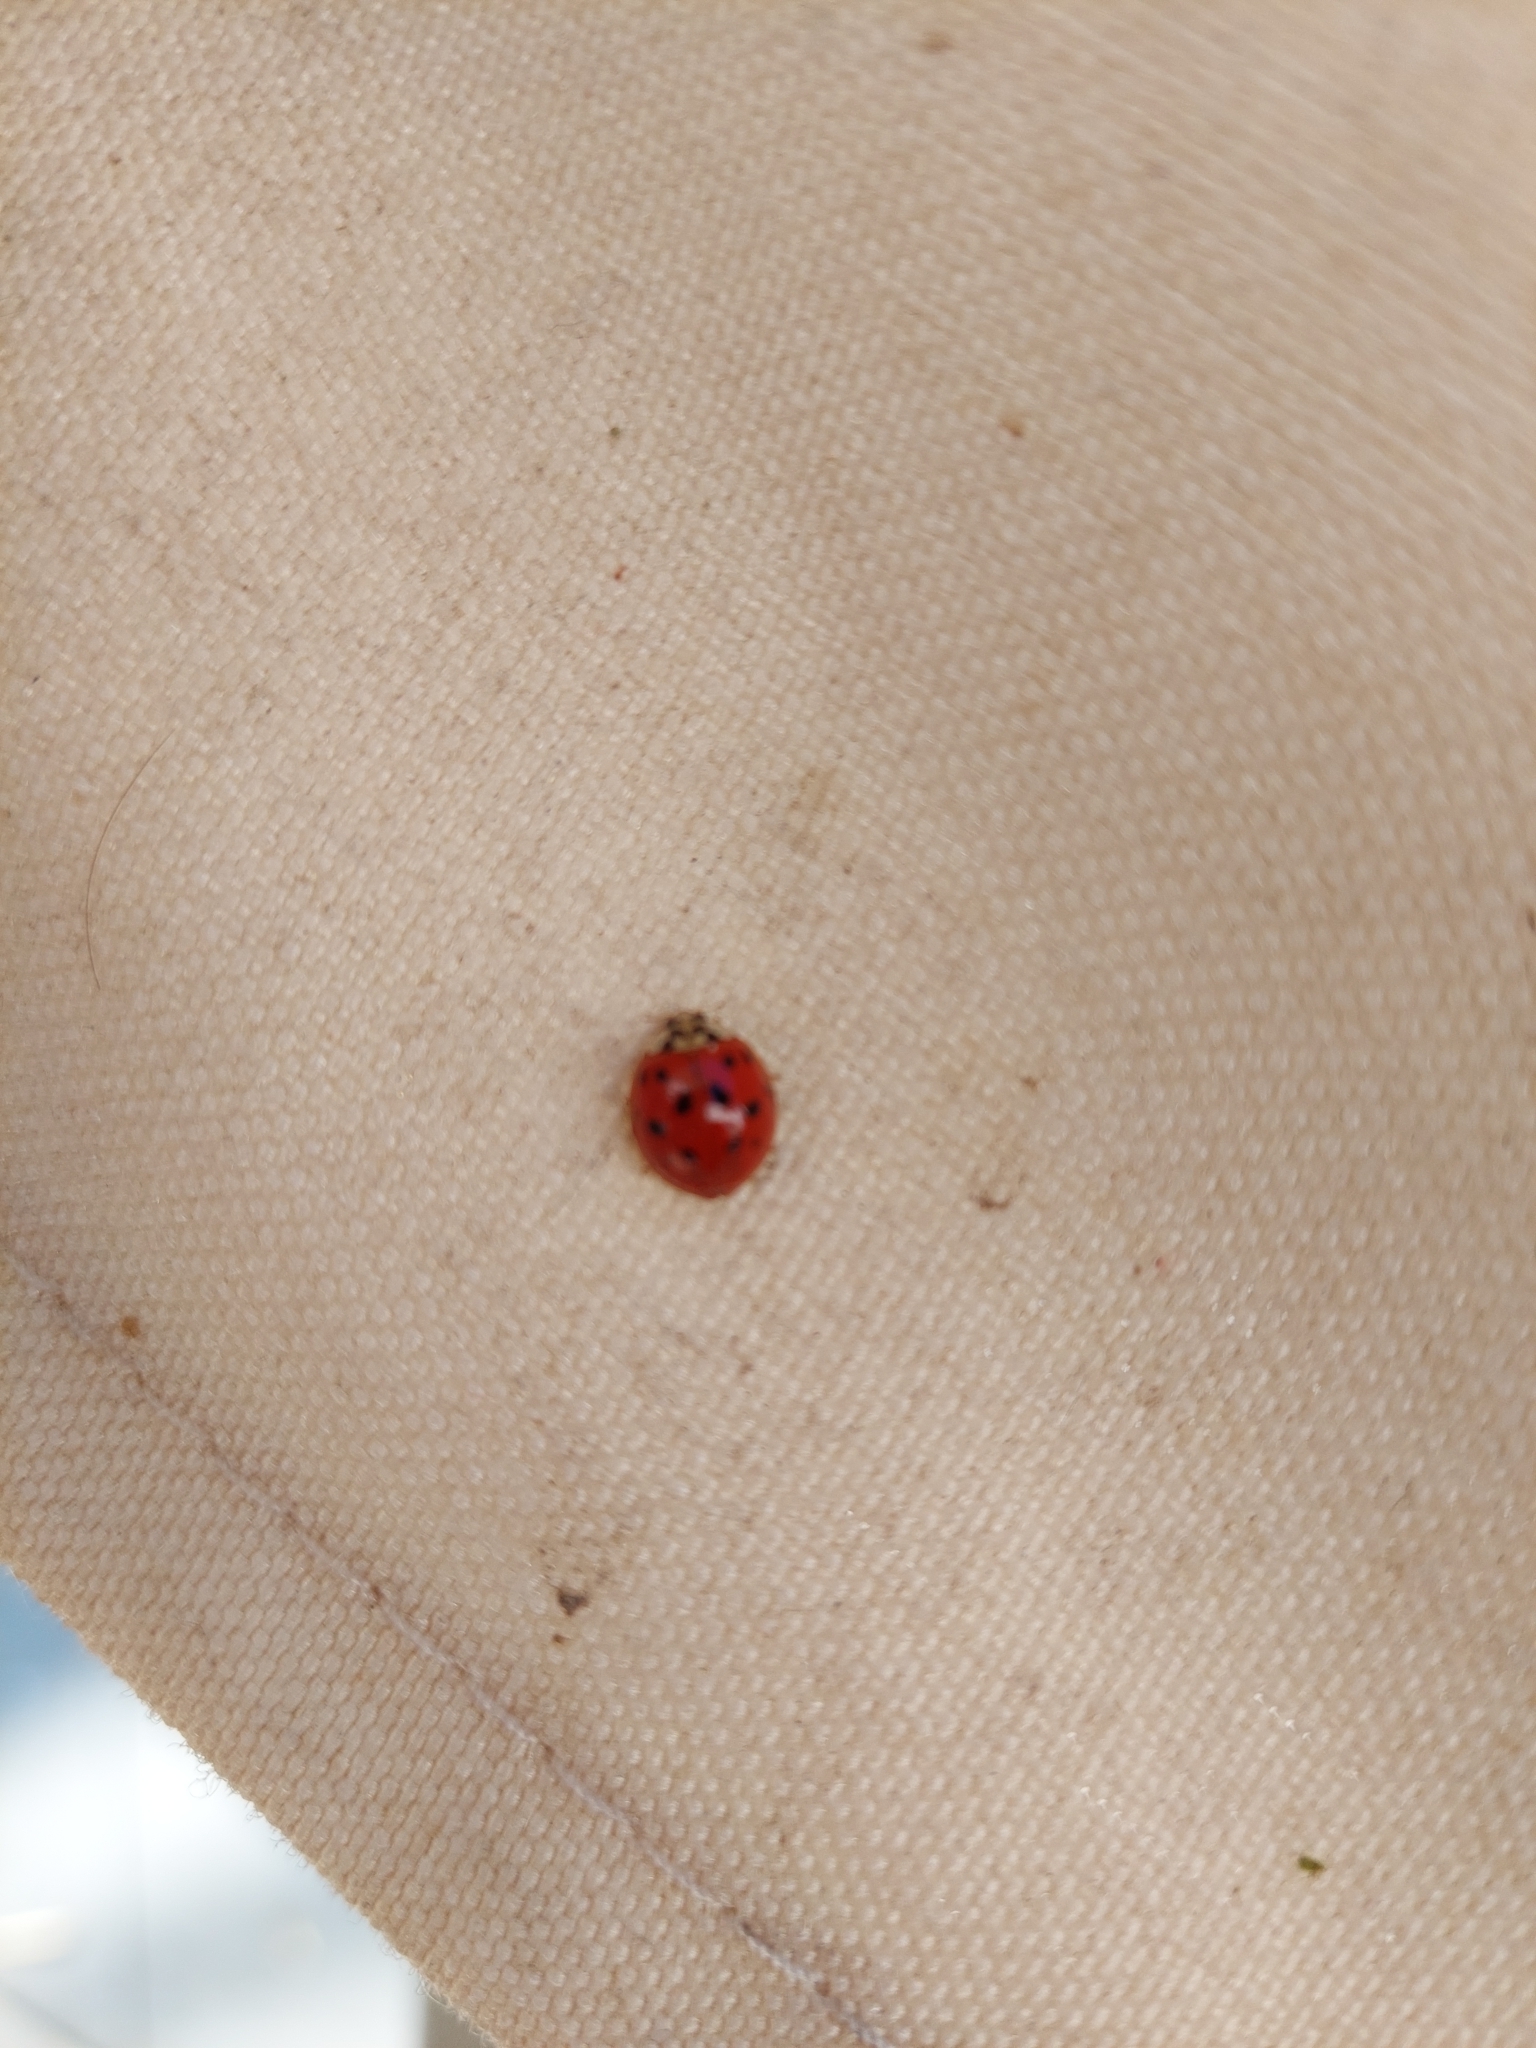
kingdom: Animalia
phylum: Arthropoda
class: Insecta
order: Coleoptera
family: Coccinellidae
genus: Harmonia
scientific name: Harmonia axyridis
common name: Harlequin ladybird
